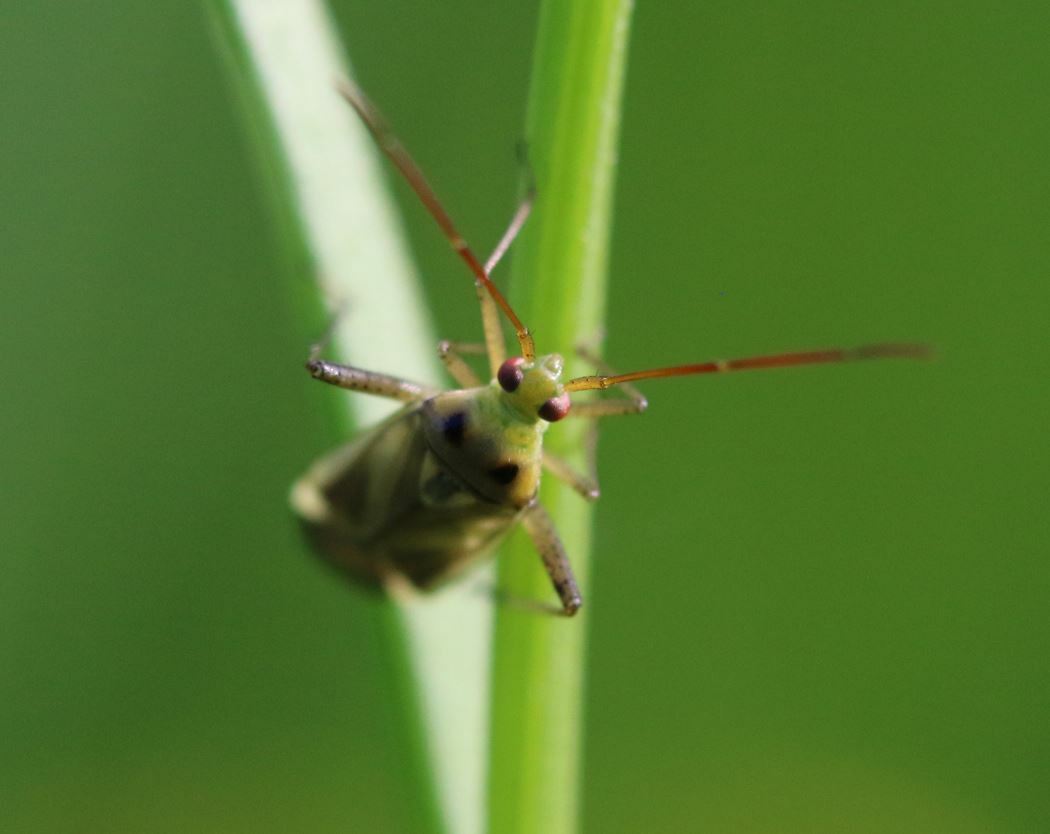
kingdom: Animalia
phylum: Arthropoda
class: Insecta
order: Hemiptera
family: Miridae
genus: Adelphocoris
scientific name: Adelphocoris lineolatus
